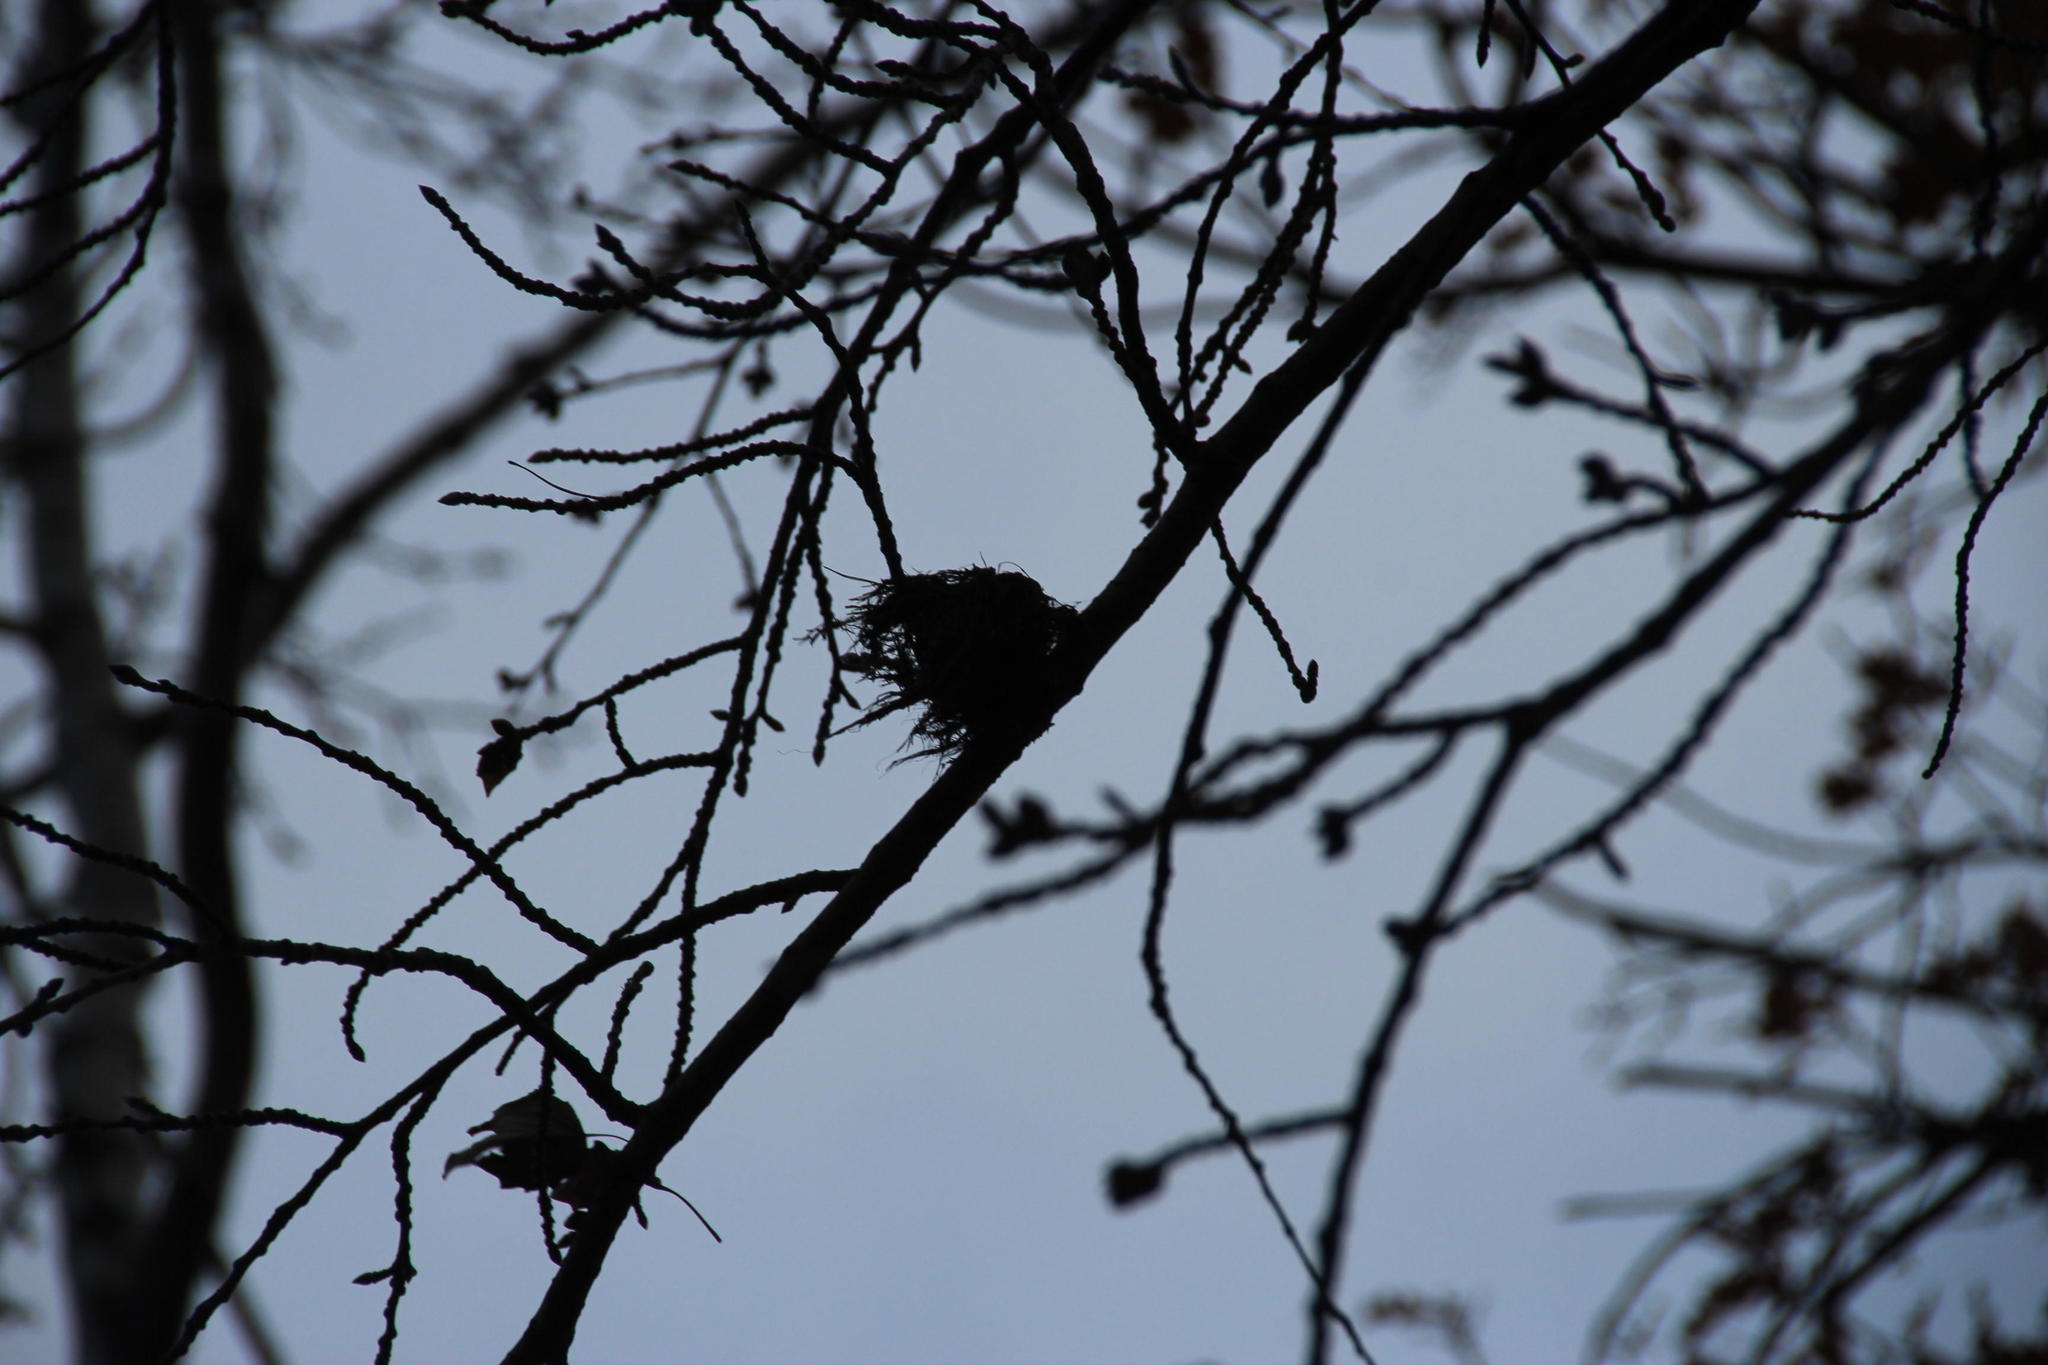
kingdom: Animalia
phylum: Chordata
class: Aves
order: Passeriformes
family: Monarchidae
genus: Terpsiphone
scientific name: Terpsiphone viridis
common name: African paradise flycatcher
